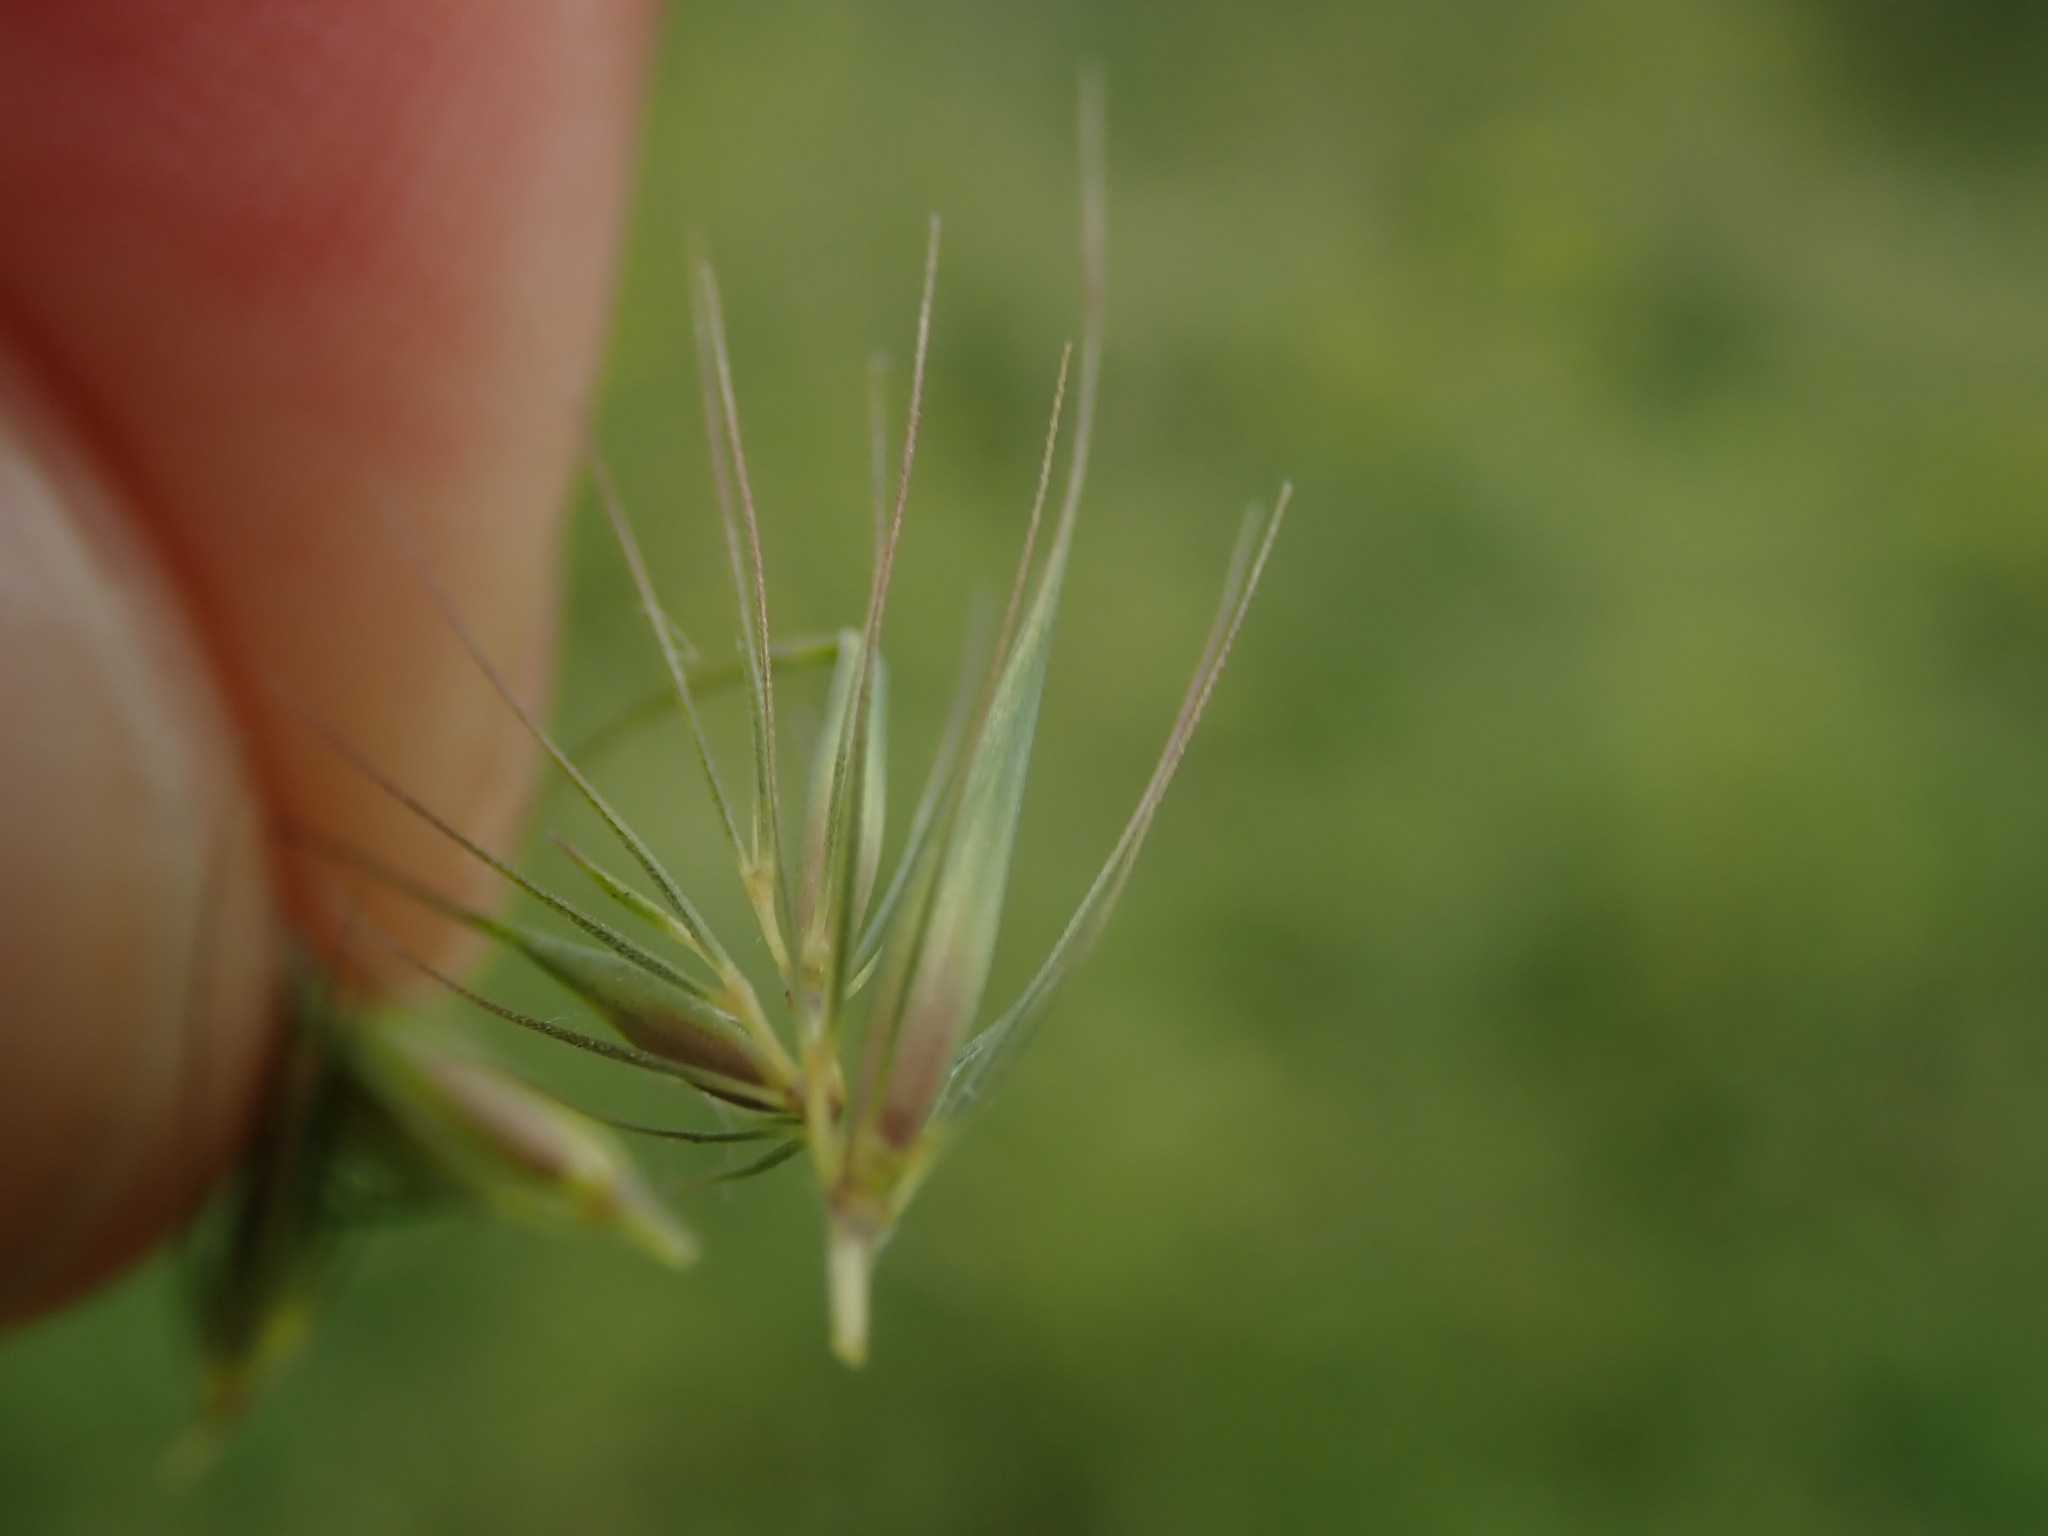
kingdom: Plantae
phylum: Tracheophyta
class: Liliopsida
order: Poales
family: Poaceae
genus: Hordeum
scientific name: Hordeum secalinum
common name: Meadow barley
